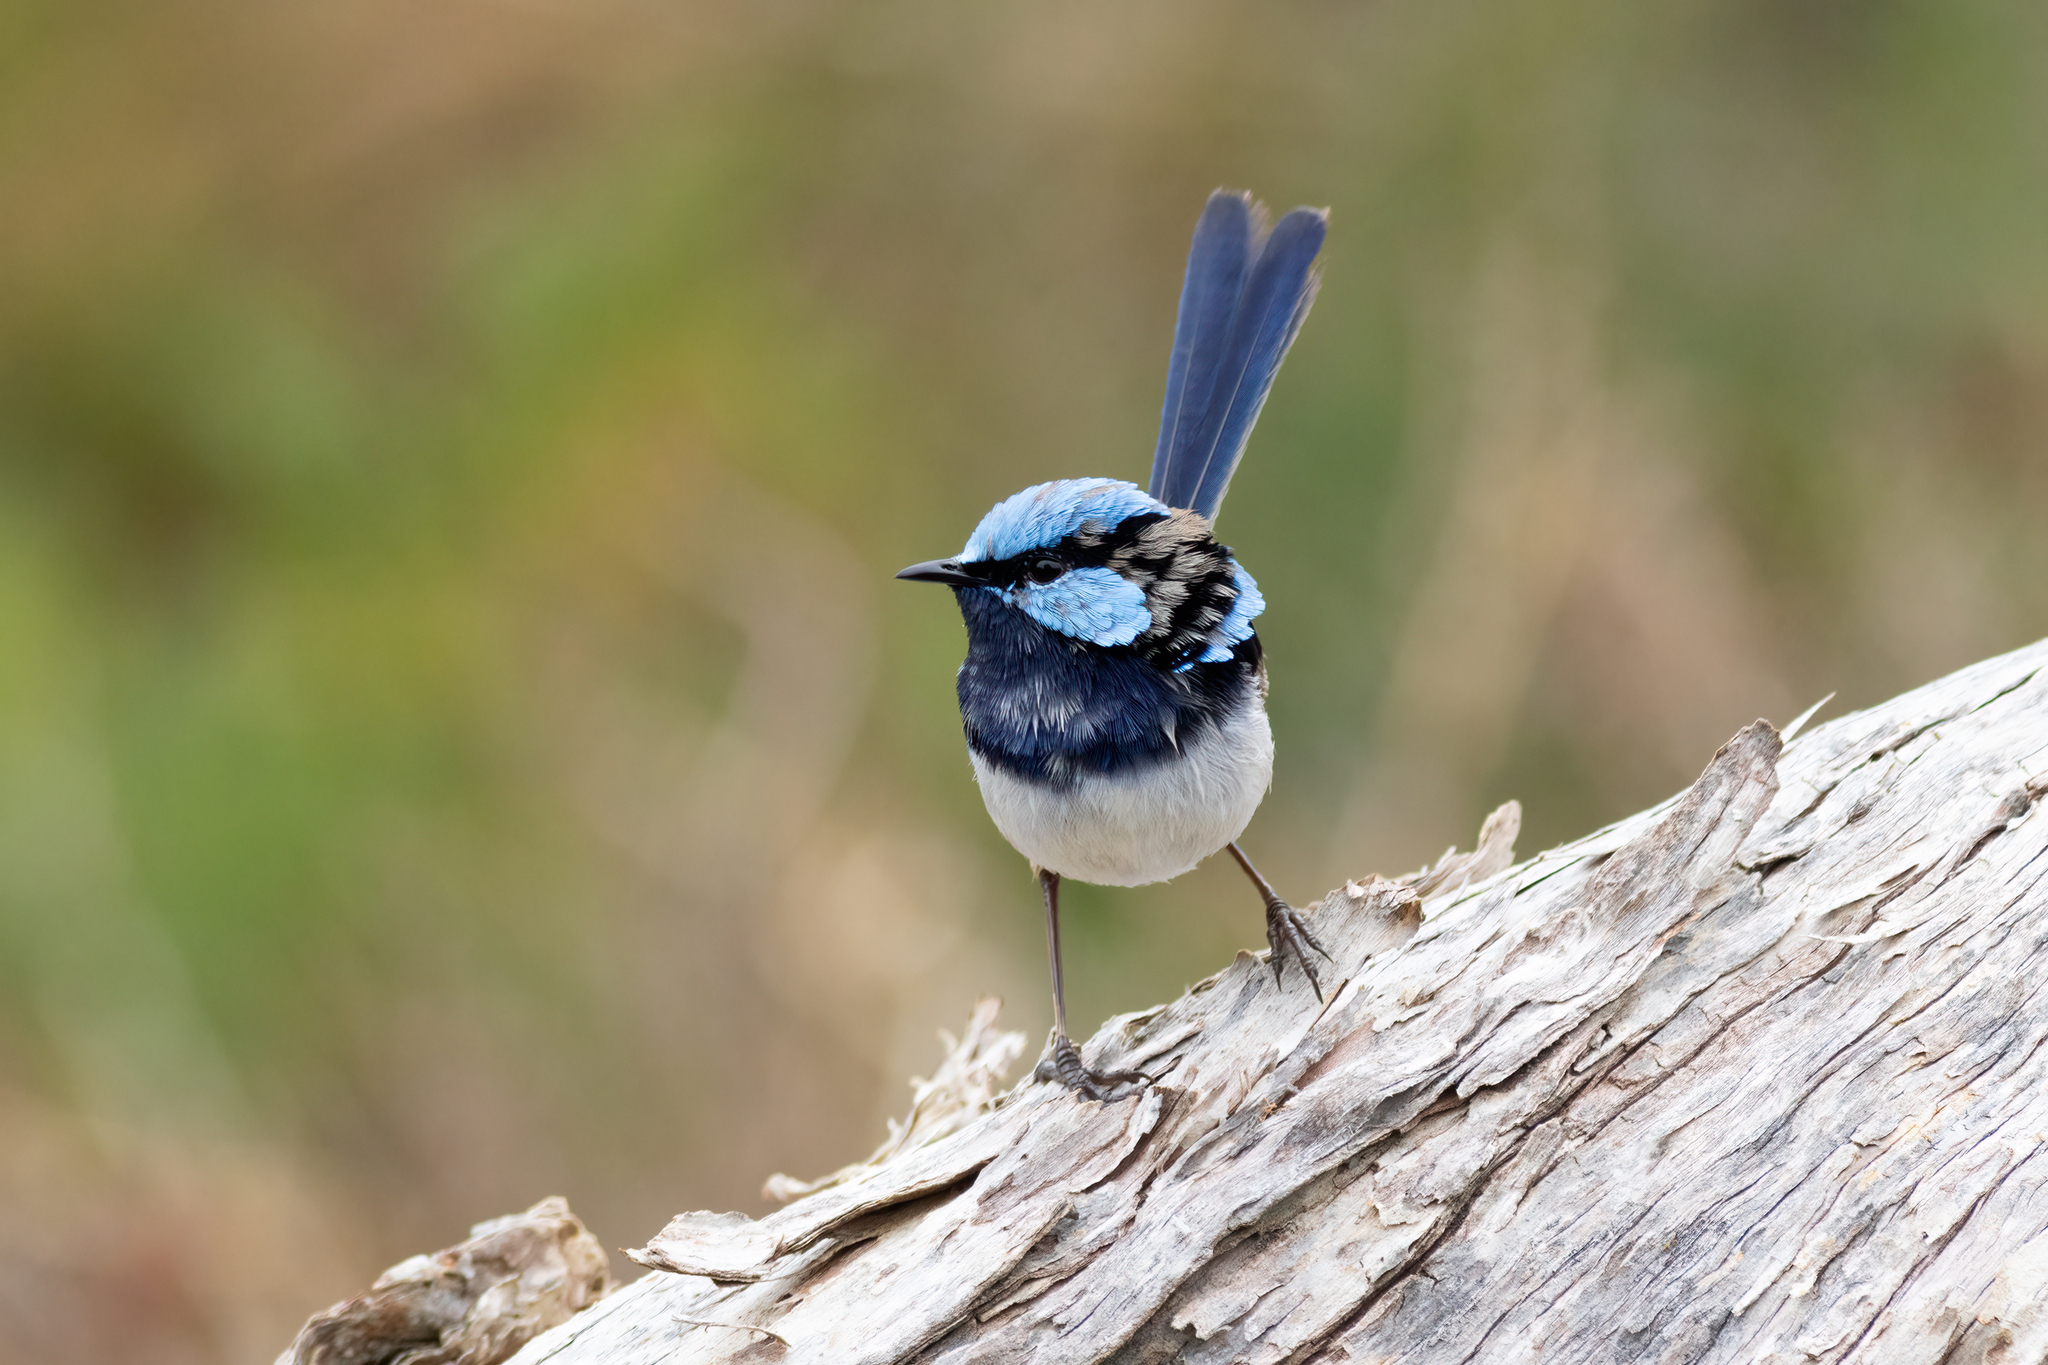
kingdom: Animalia
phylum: Chordata
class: Aves
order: Passeriformes
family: Maluridae
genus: Malurus
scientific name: Malurus cyaneus
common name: Superb fairywren
